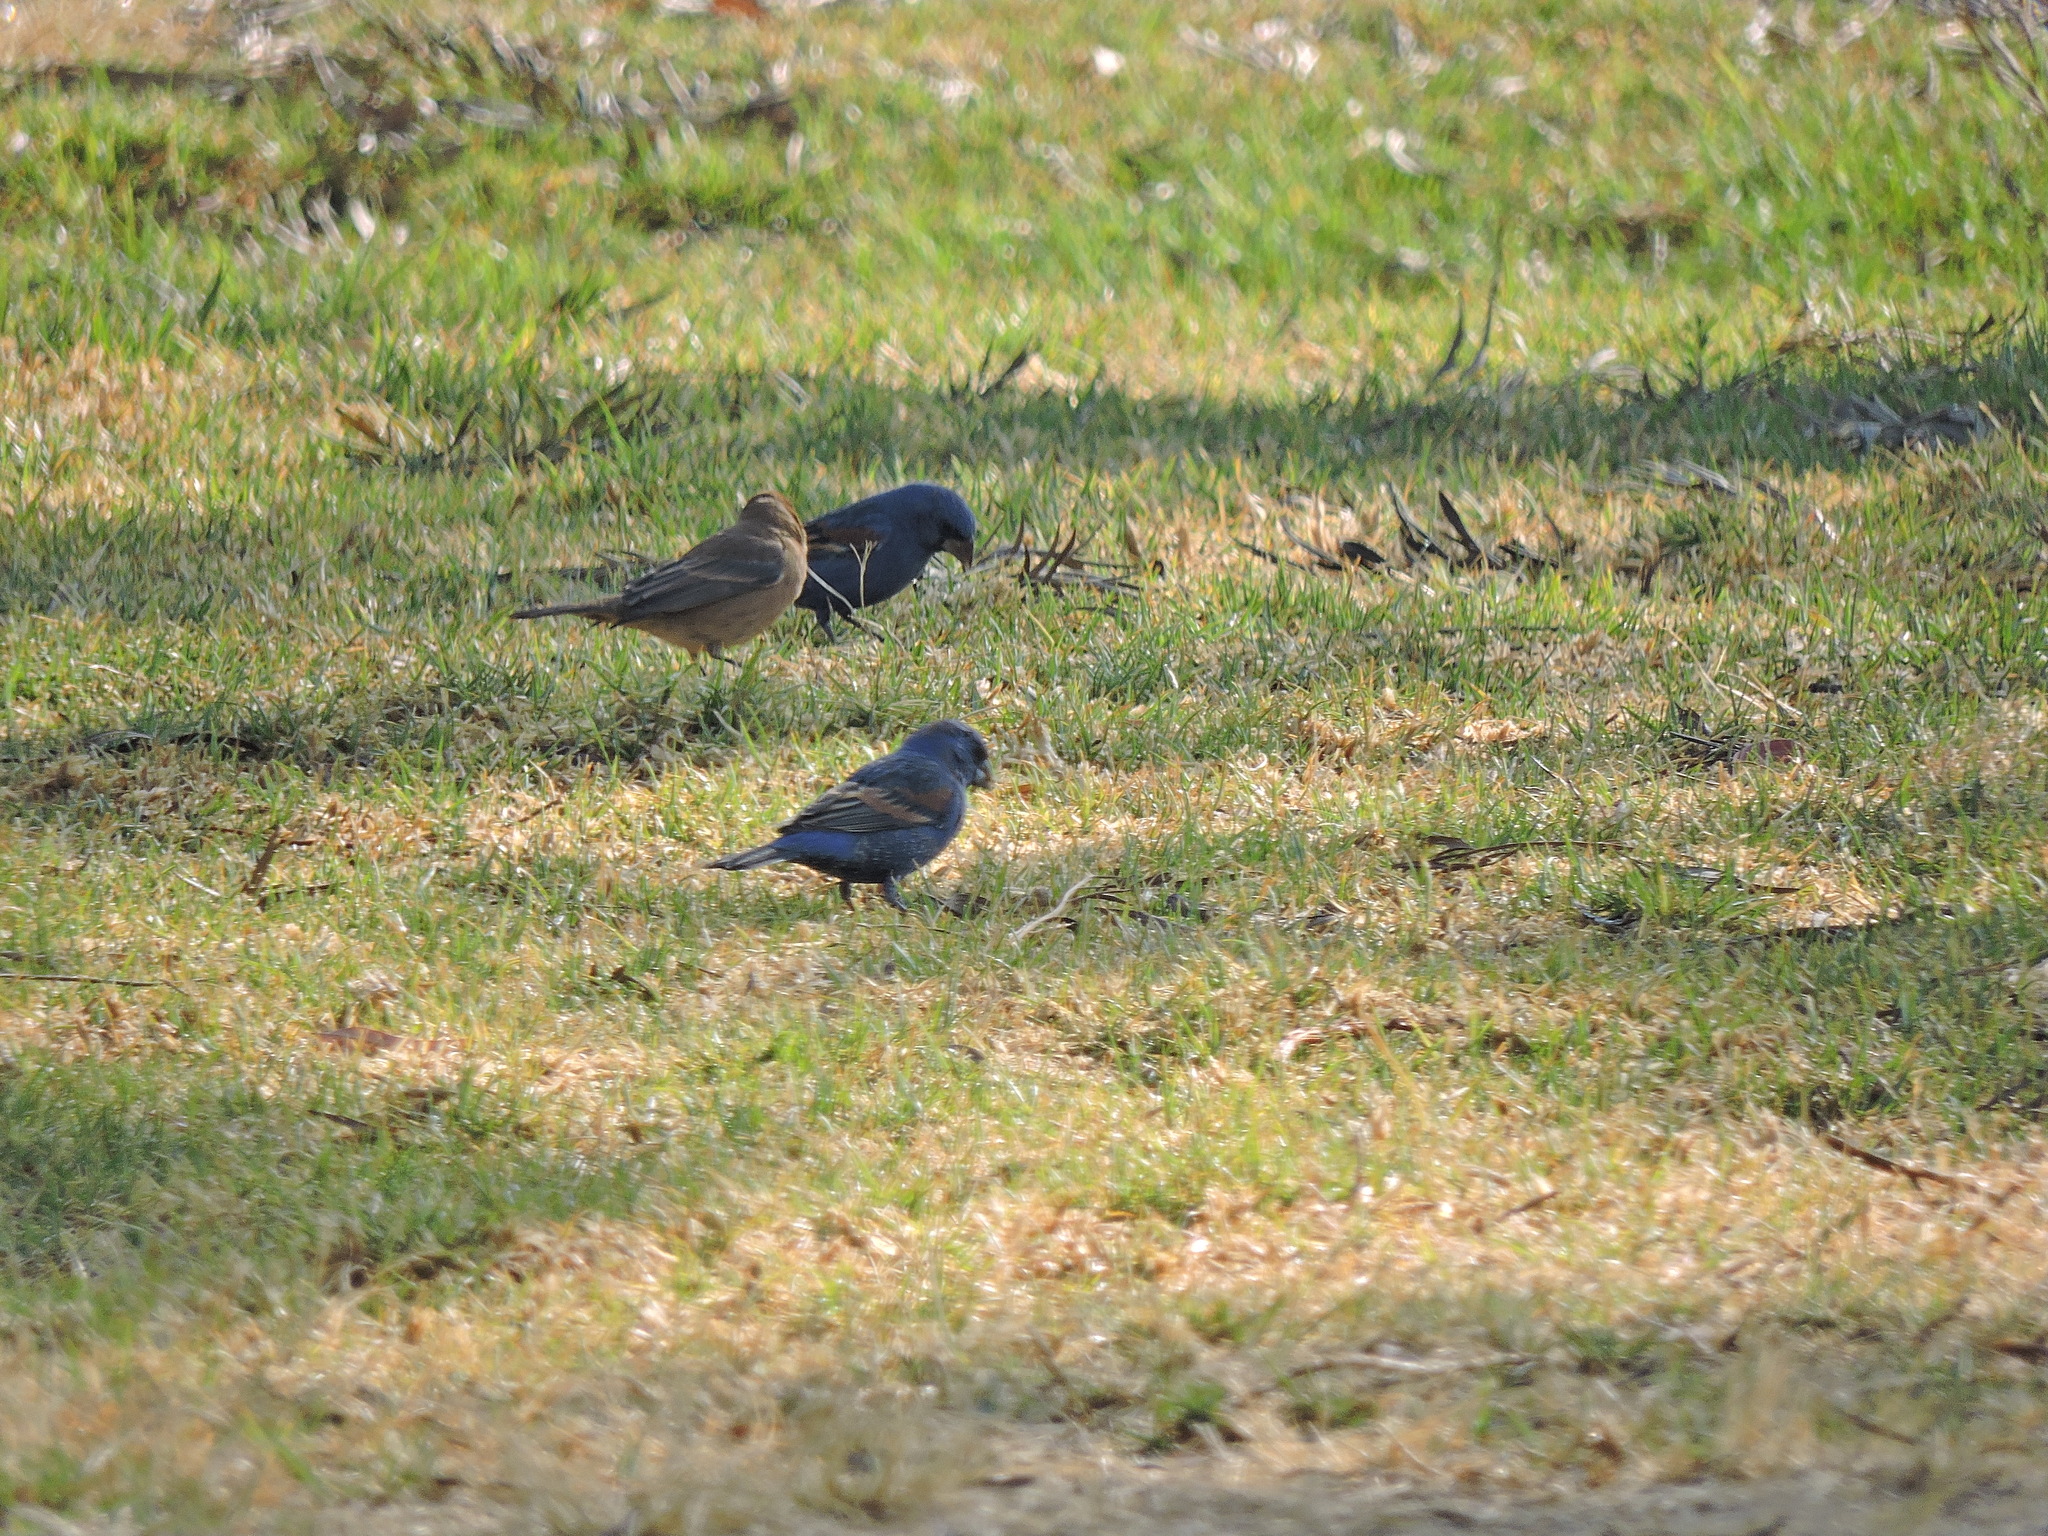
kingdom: Animalia
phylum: Chordata
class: Aves
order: Passeriformes
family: Cardinalidae
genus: Passerina
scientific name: Passerina caerulea
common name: Blue grosbeak
